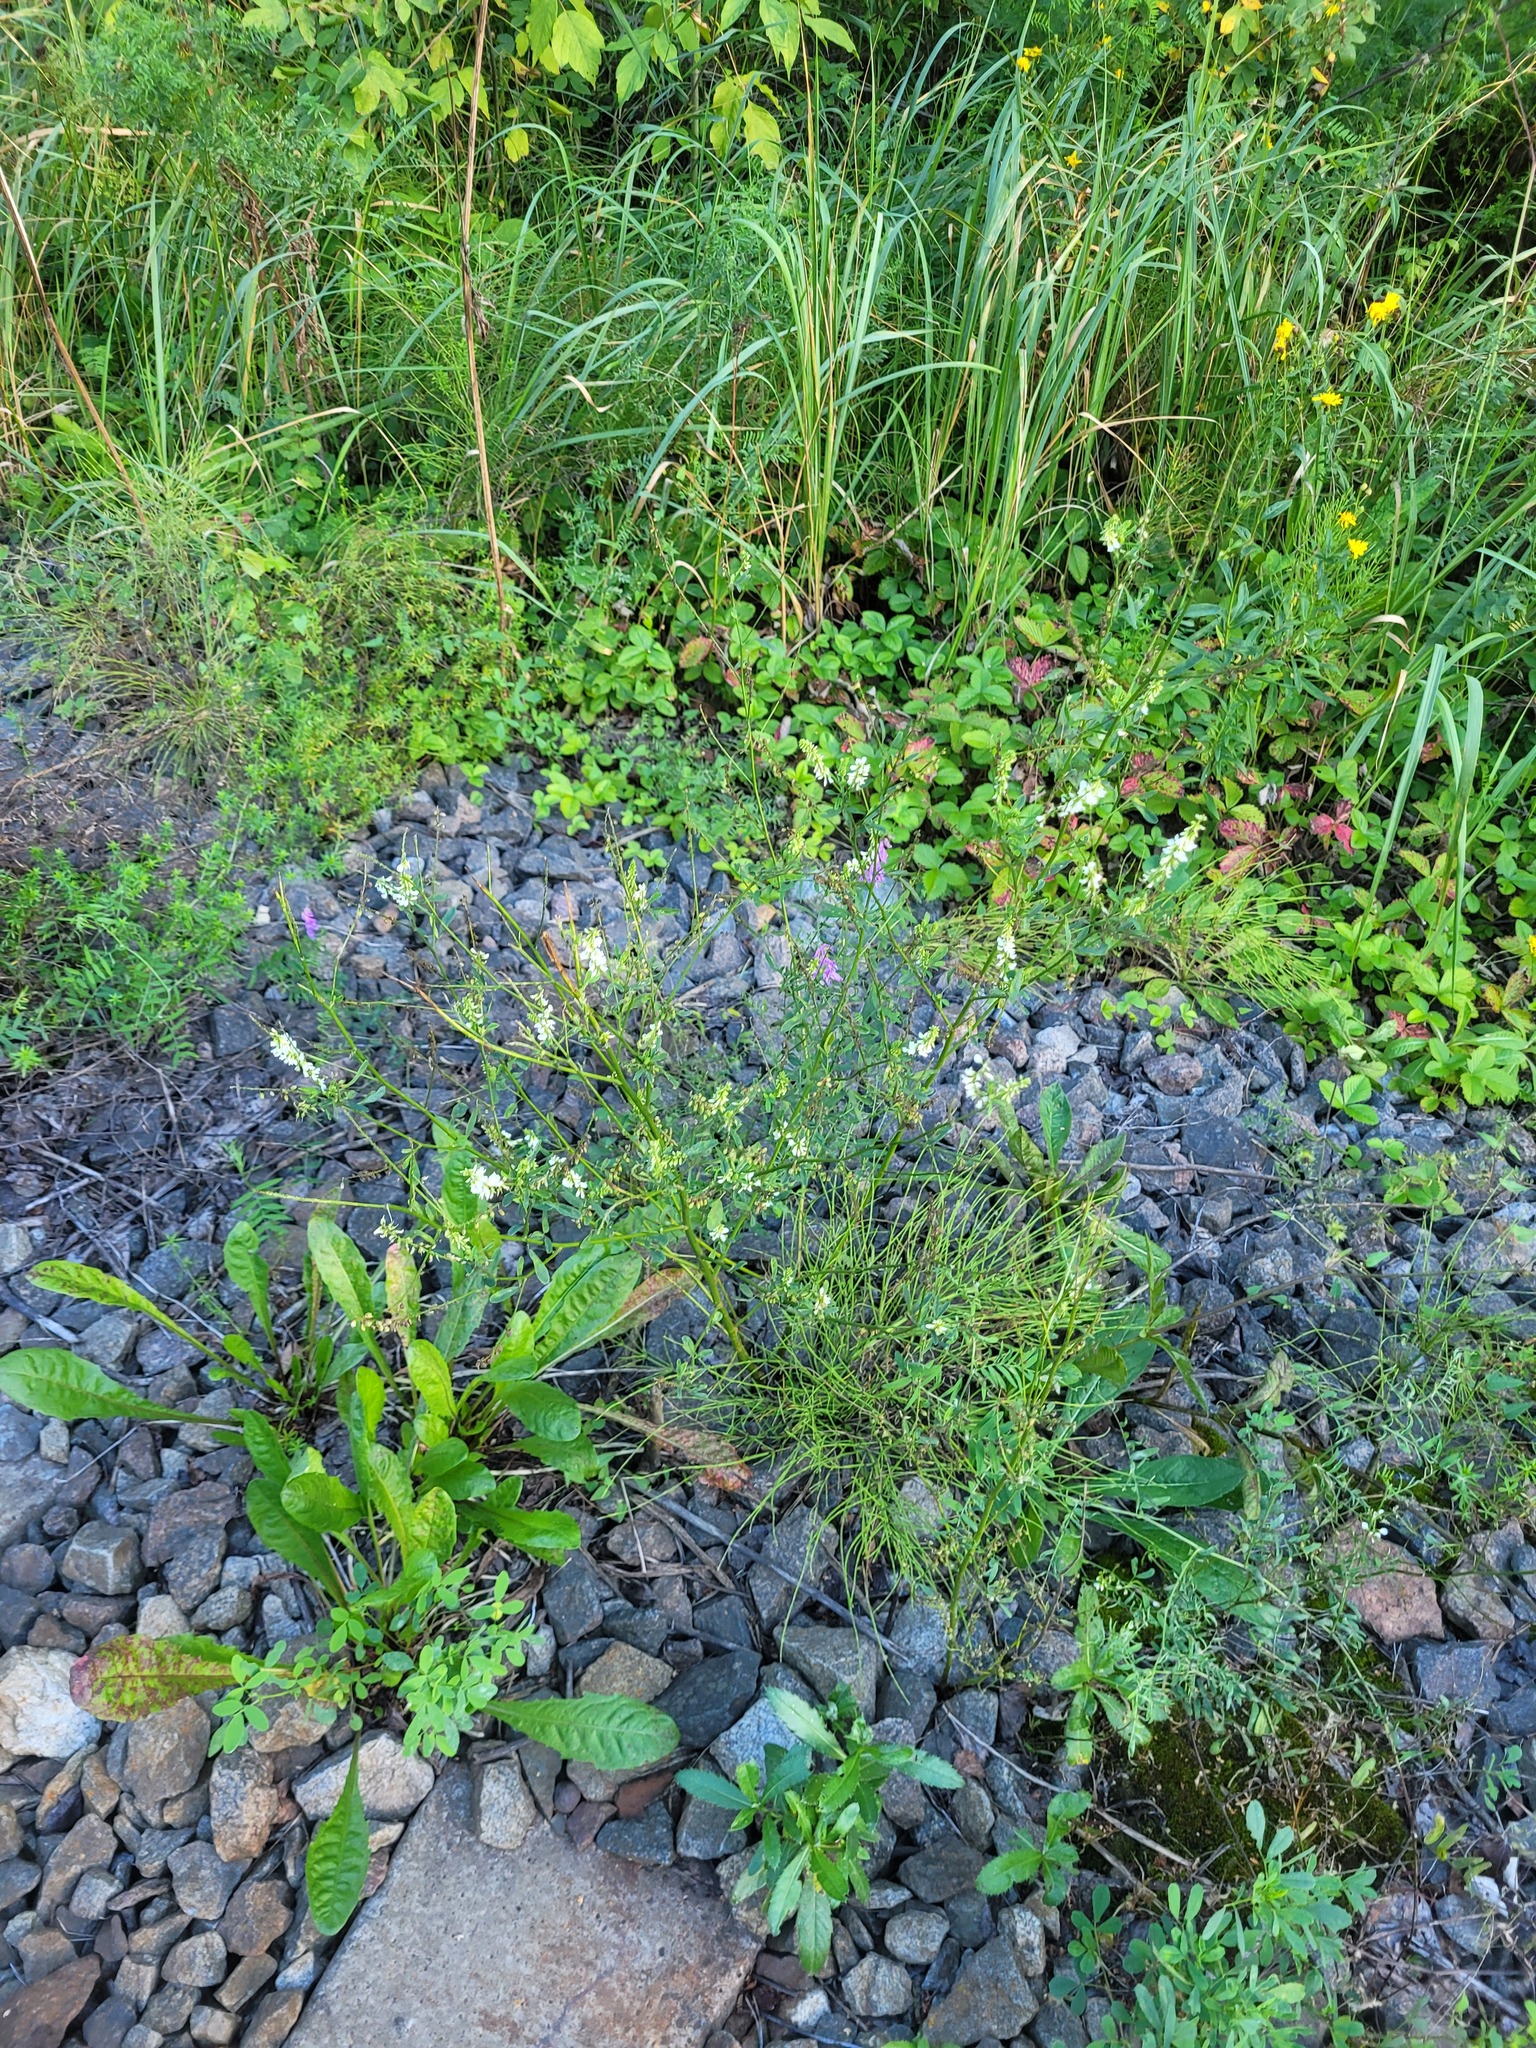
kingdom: Plantae
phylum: Tracheophyta
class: Magnoliopsida
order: Fabales
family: Fabaceae
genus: Melilotus
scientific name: Melilotus albus
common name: White melilot
